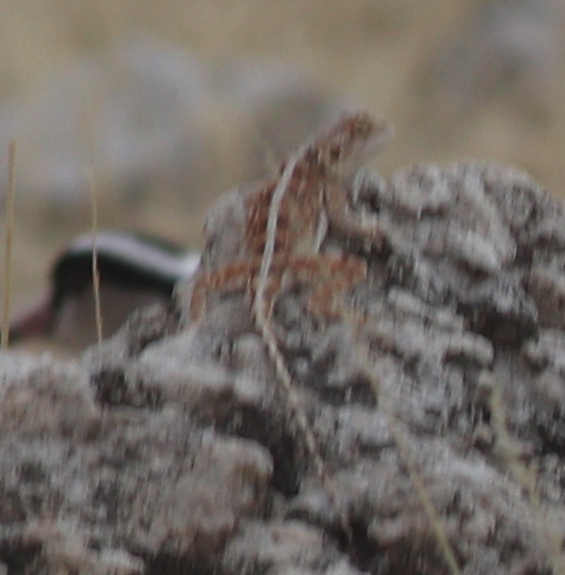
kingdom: Animalia
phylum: Chordata
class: Squamata
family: Agamidae
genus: Agama
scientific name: Agama aculeata
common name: Common ground agama
